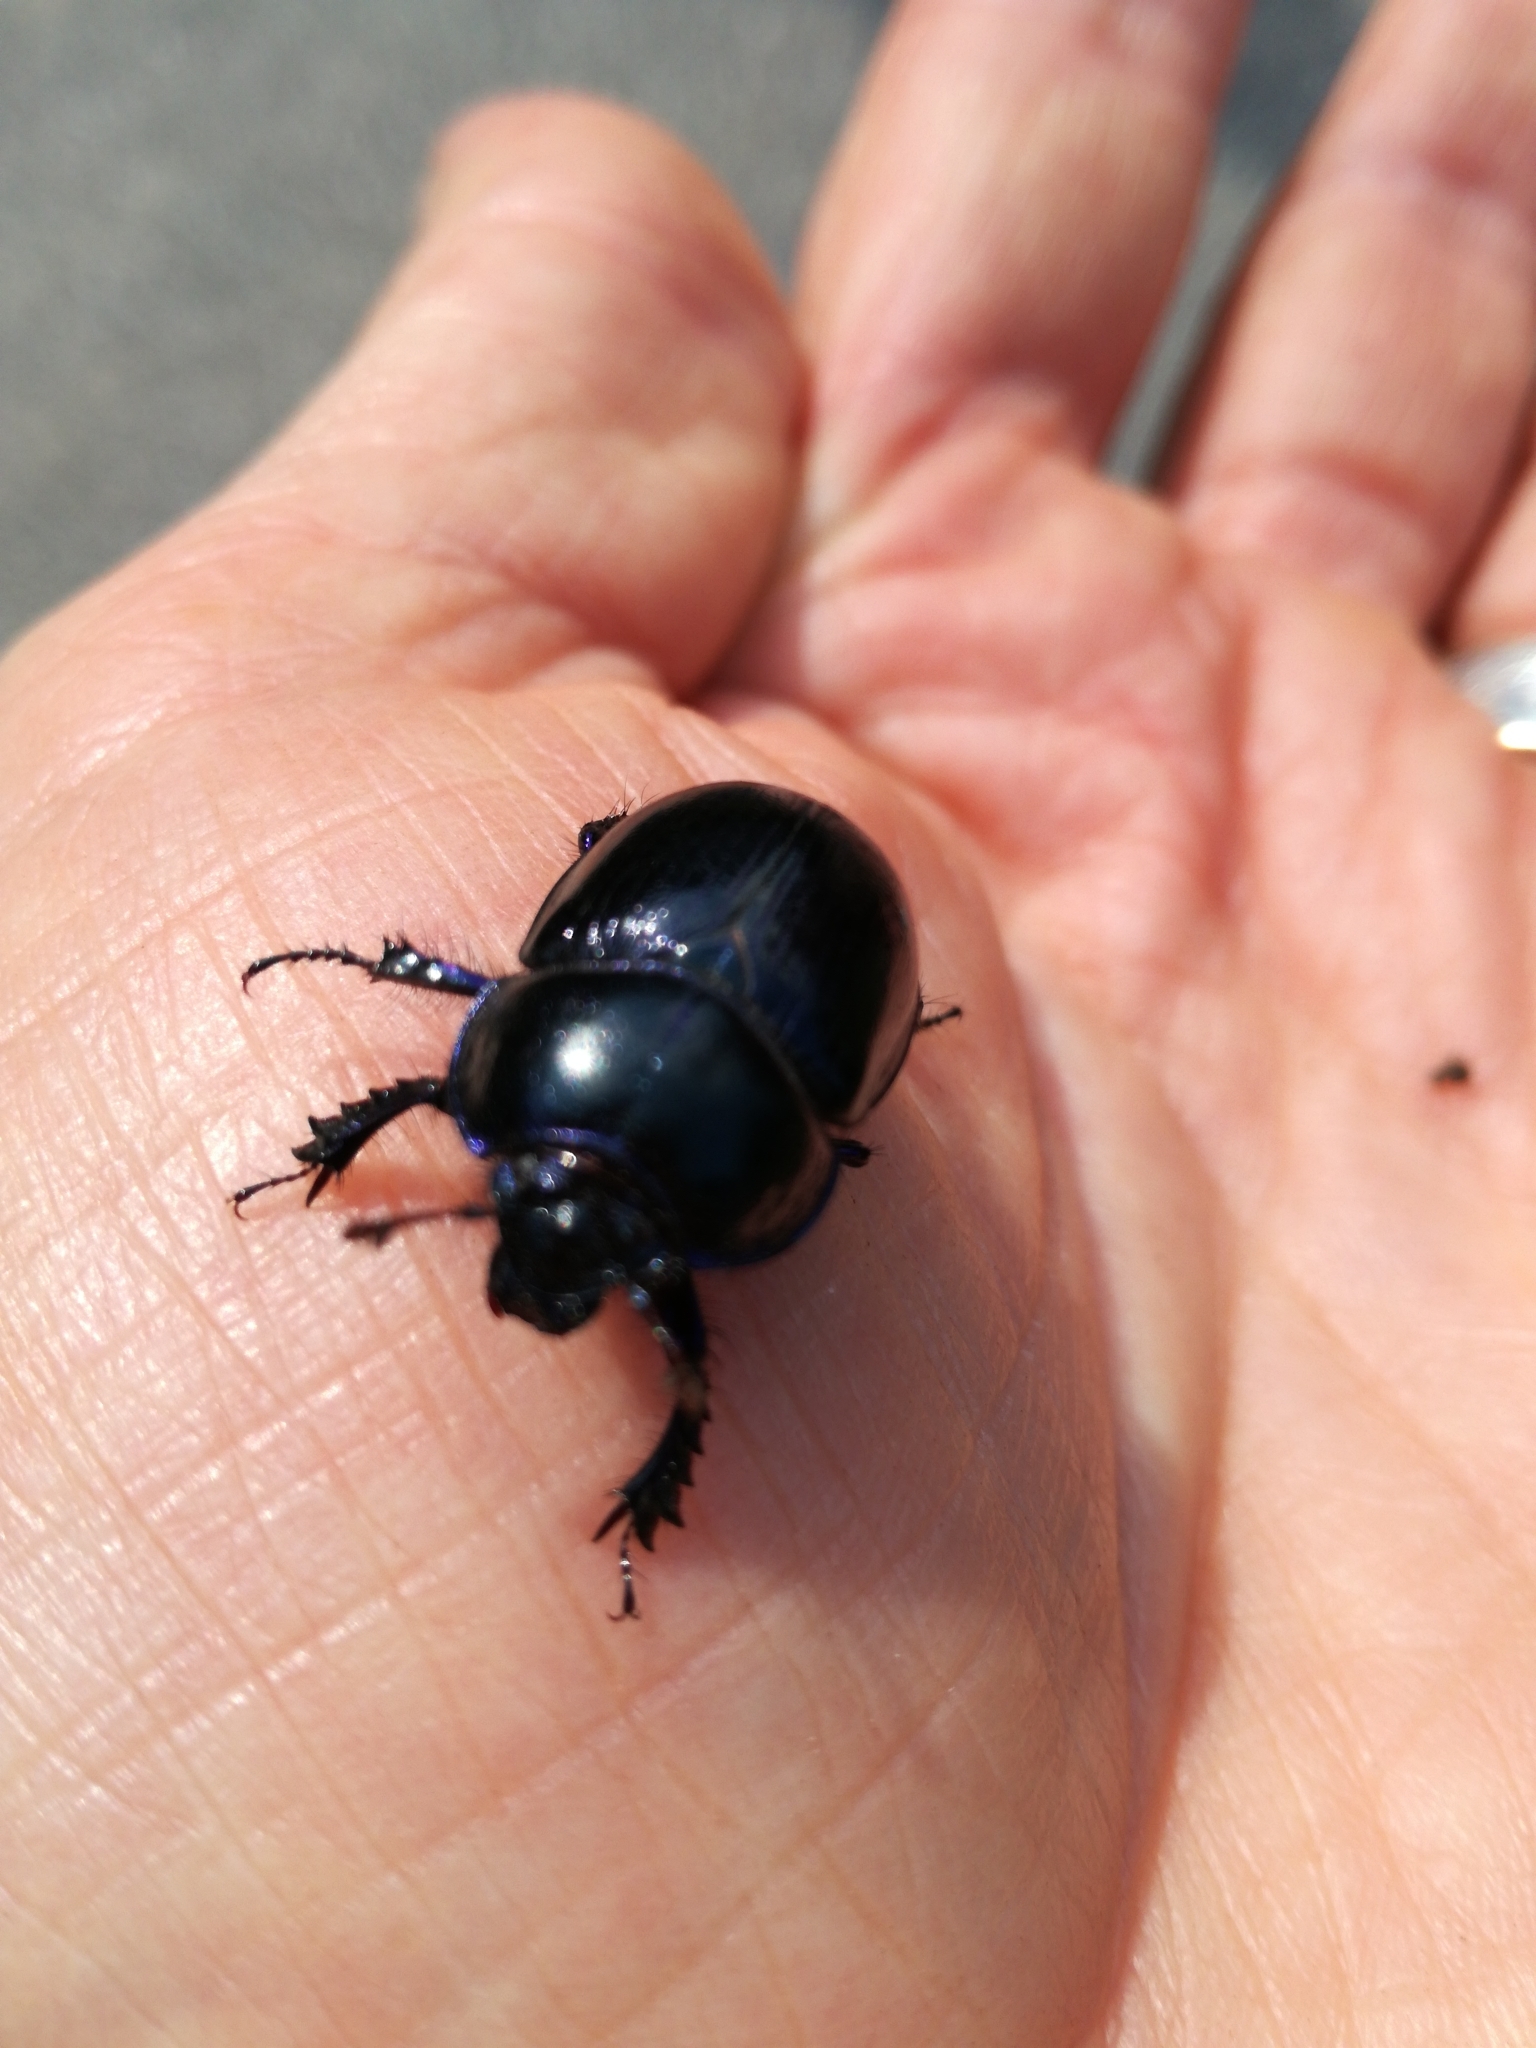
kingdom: Animalia
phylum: Arthropoda
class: Insecta
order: Coleoptera
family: Geotrupidae
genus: Trypocopris
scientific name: Trypocopris vernalis
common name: Spring dumbledor
